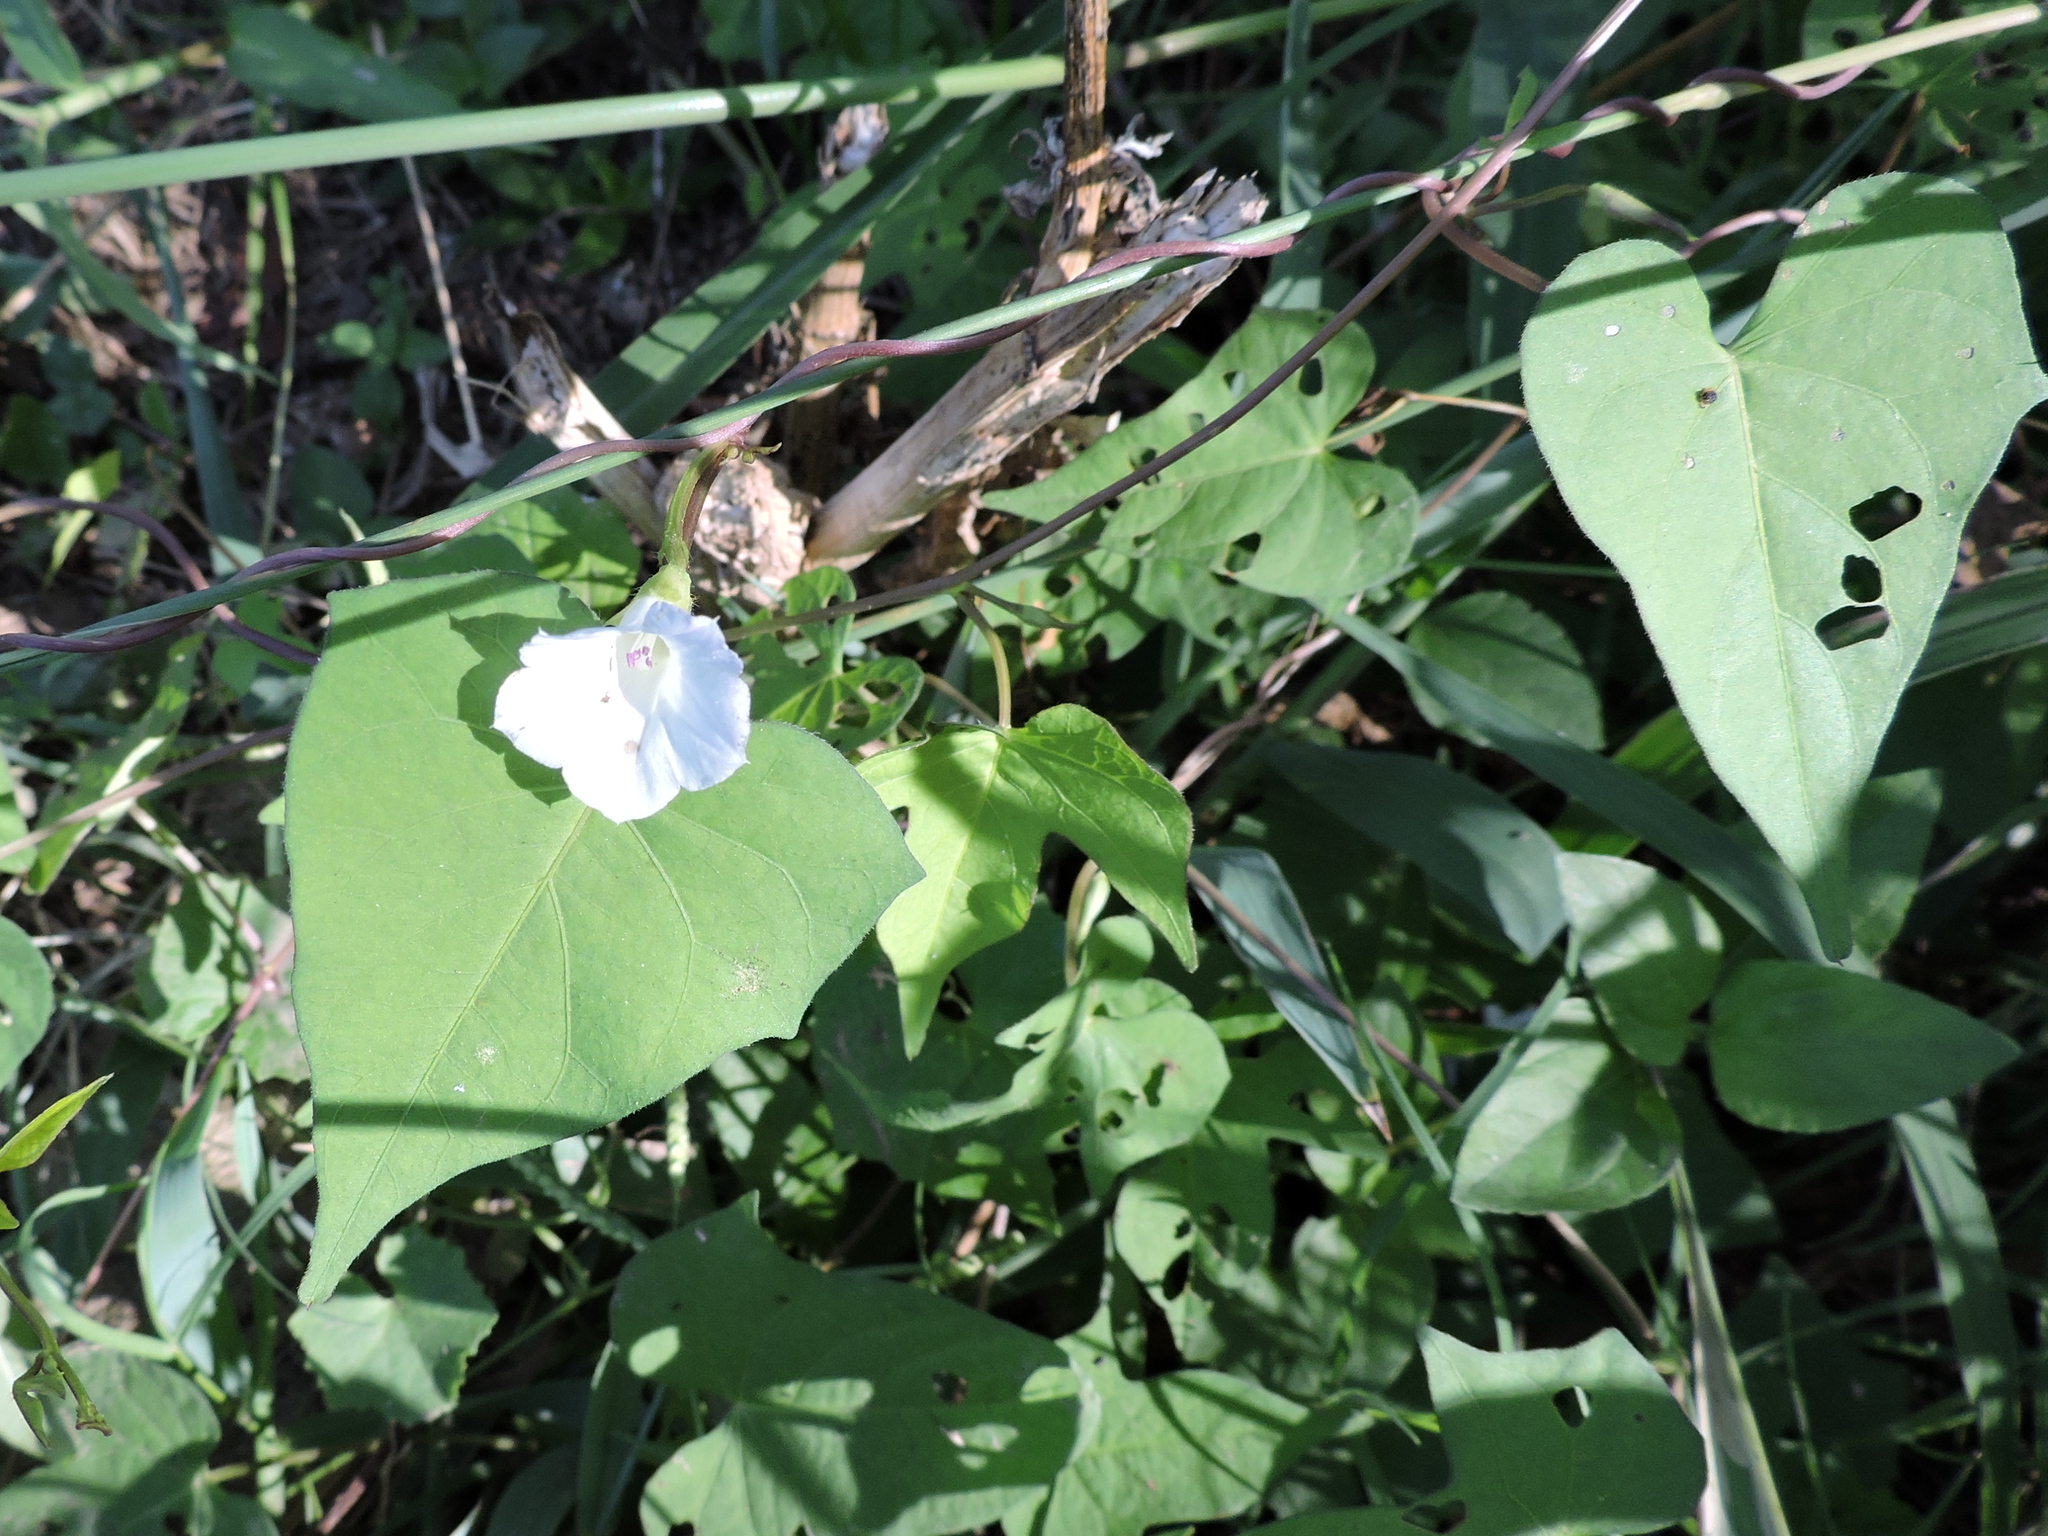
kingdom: Plantae
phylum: Tracheophyta
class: Magnoliopsida
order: Solanales
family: Convolvulaceae
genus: Ipomoea
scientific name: Ipomoea lacunosa
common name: White morning-glory
